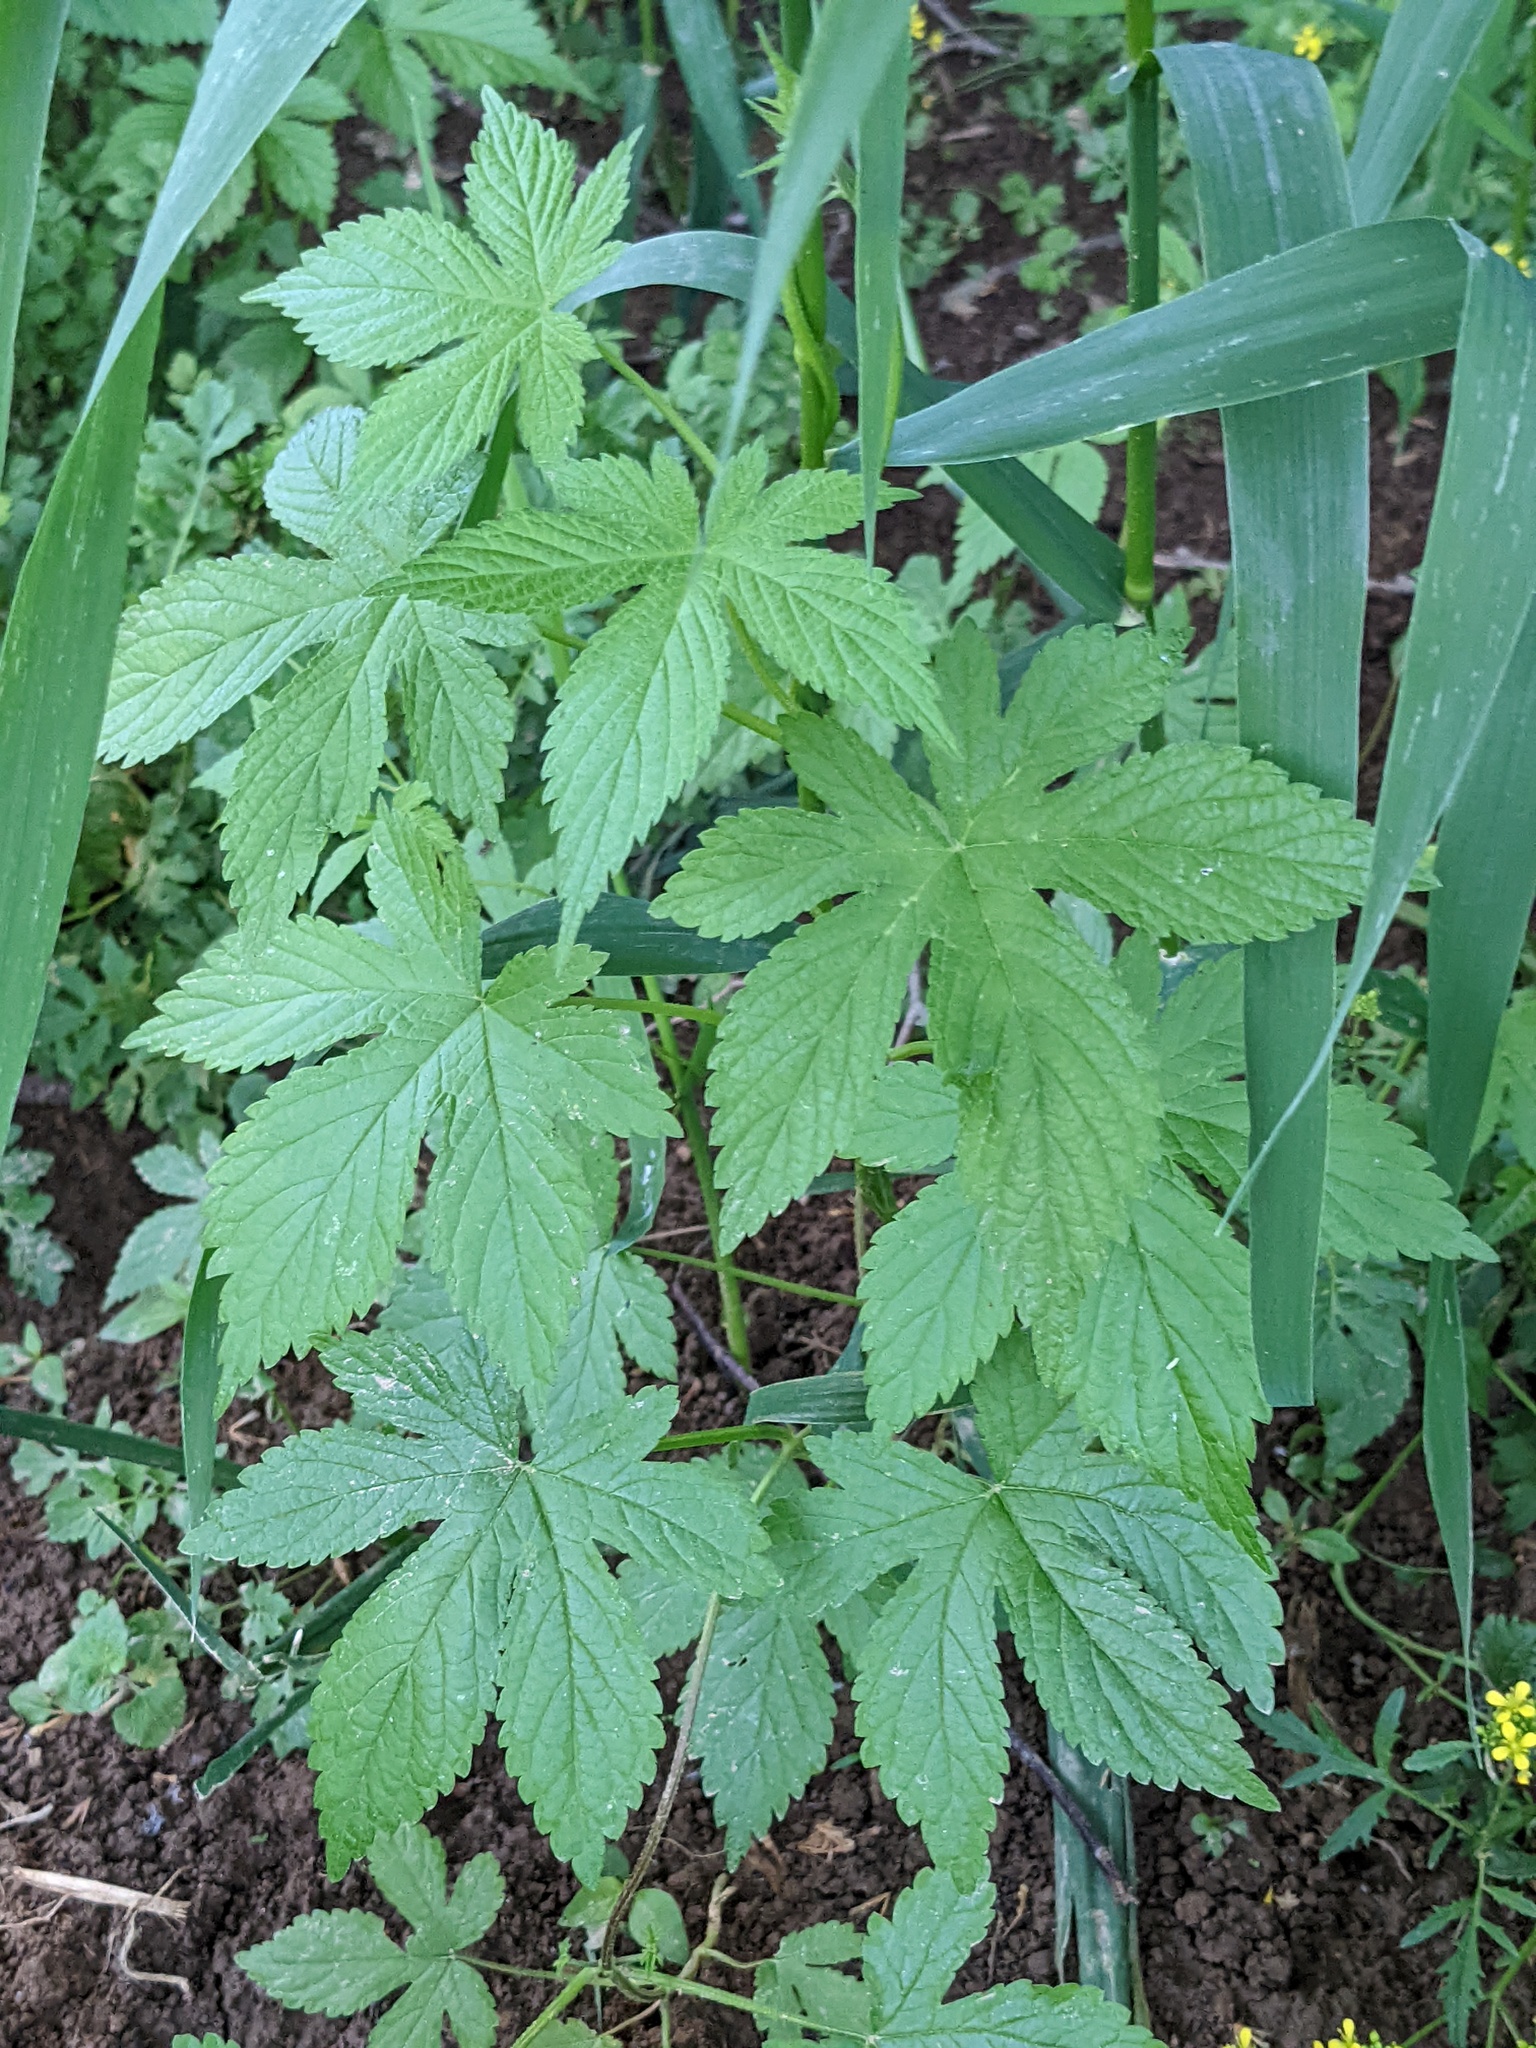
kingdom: Plantae
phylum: Tracheophyta
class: Magnoliopsida
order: Rosales
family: Cannabaceae
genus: Humulus
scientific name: Humulus scandens
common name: Japanese hop
